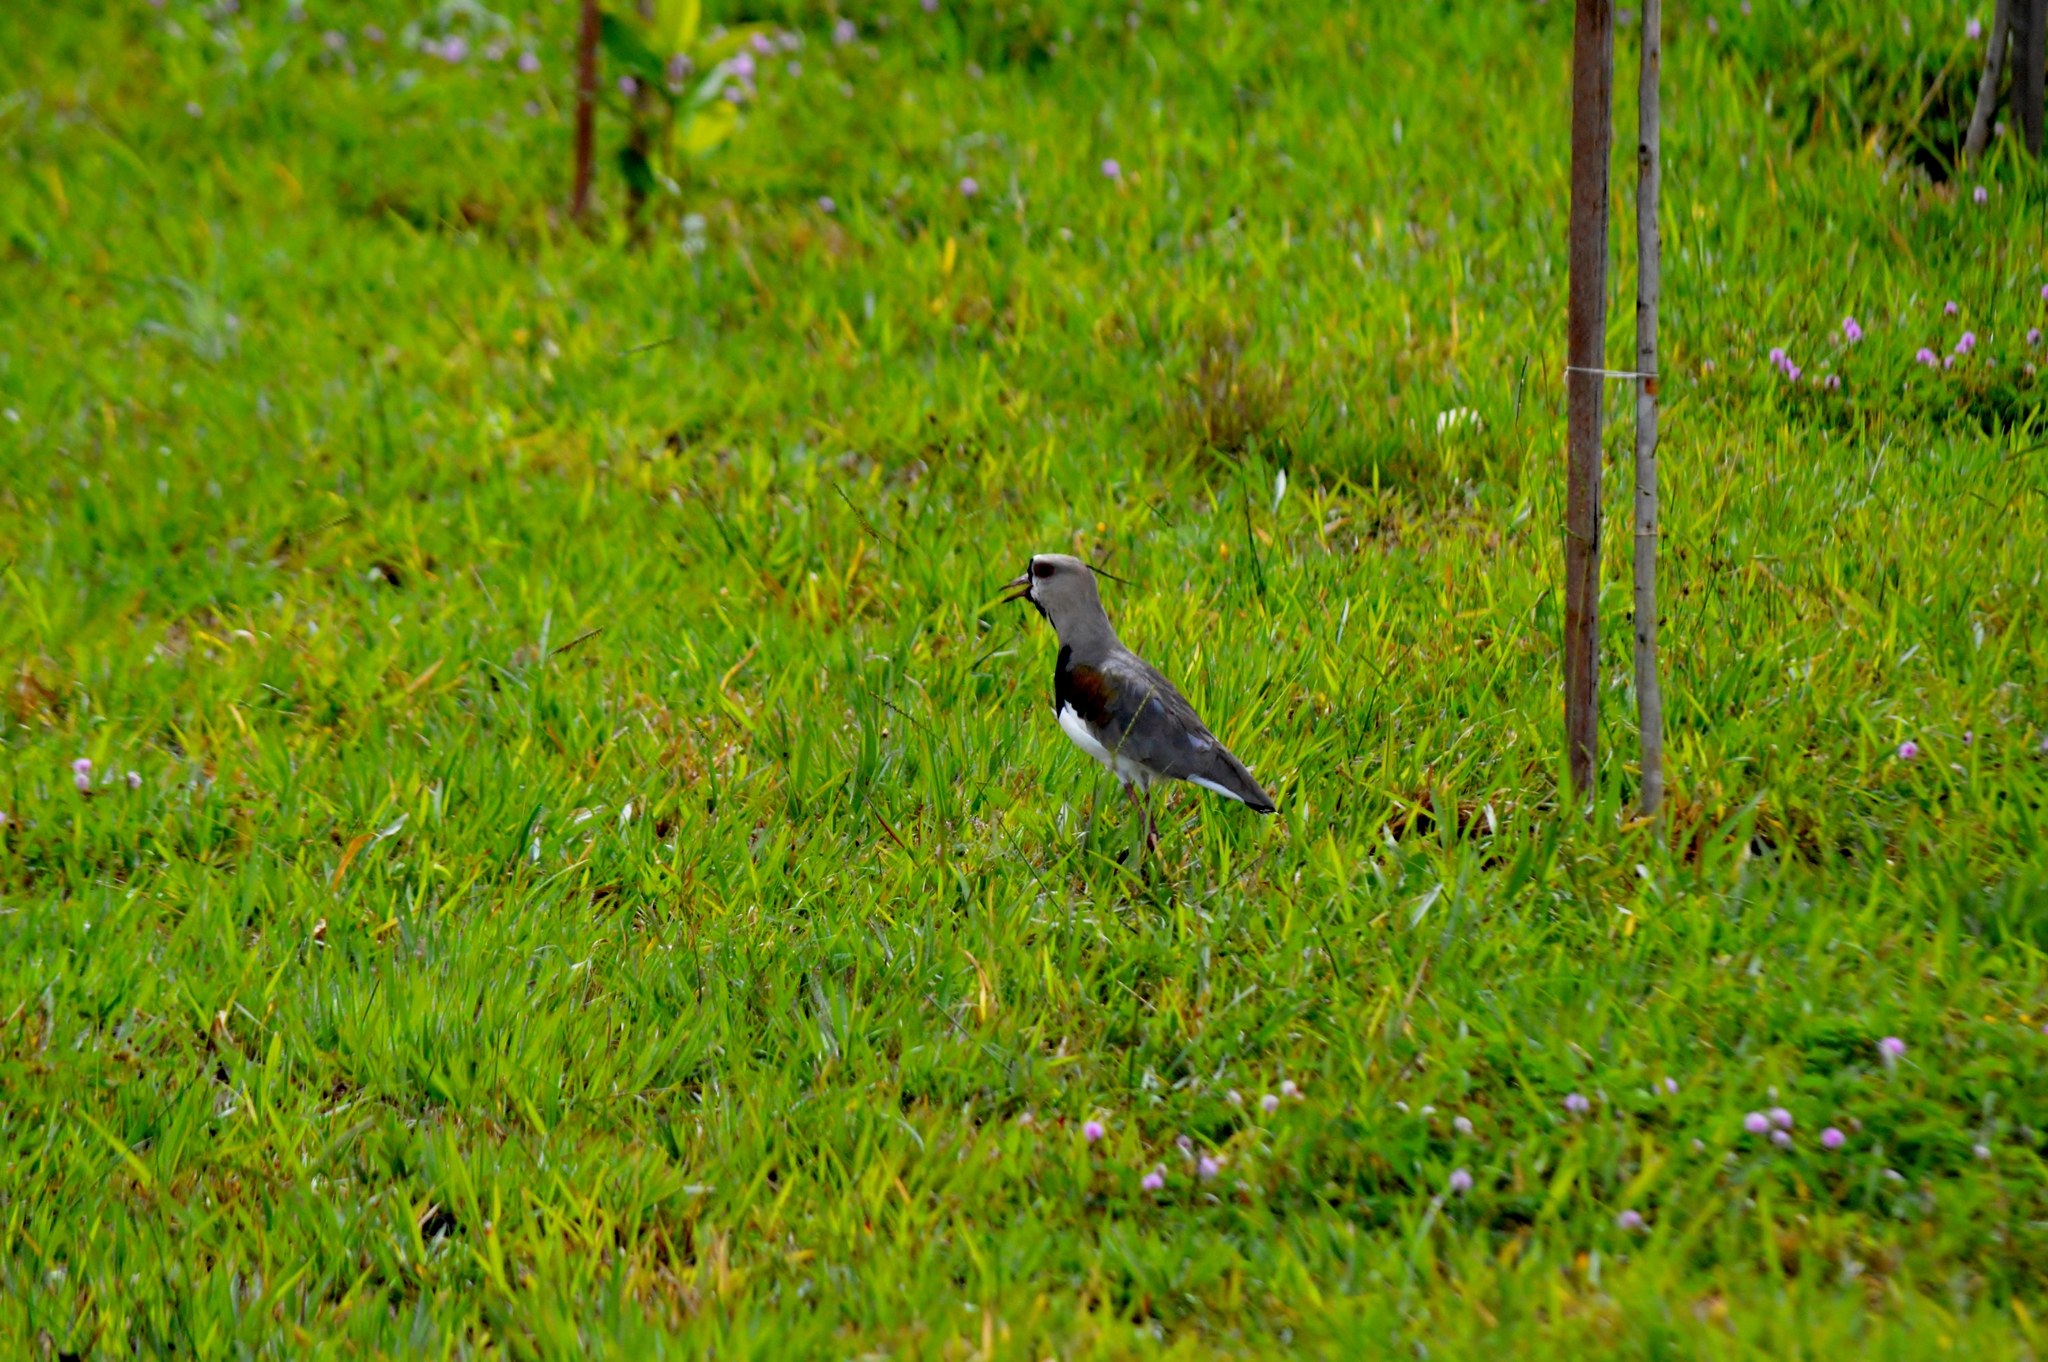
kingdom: Animalia
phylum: Chordata
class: Aves
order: Charadriiformes
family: Charadriidae
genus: Vanellus
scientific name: Vanellus chilensis
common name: Southern lapwing
